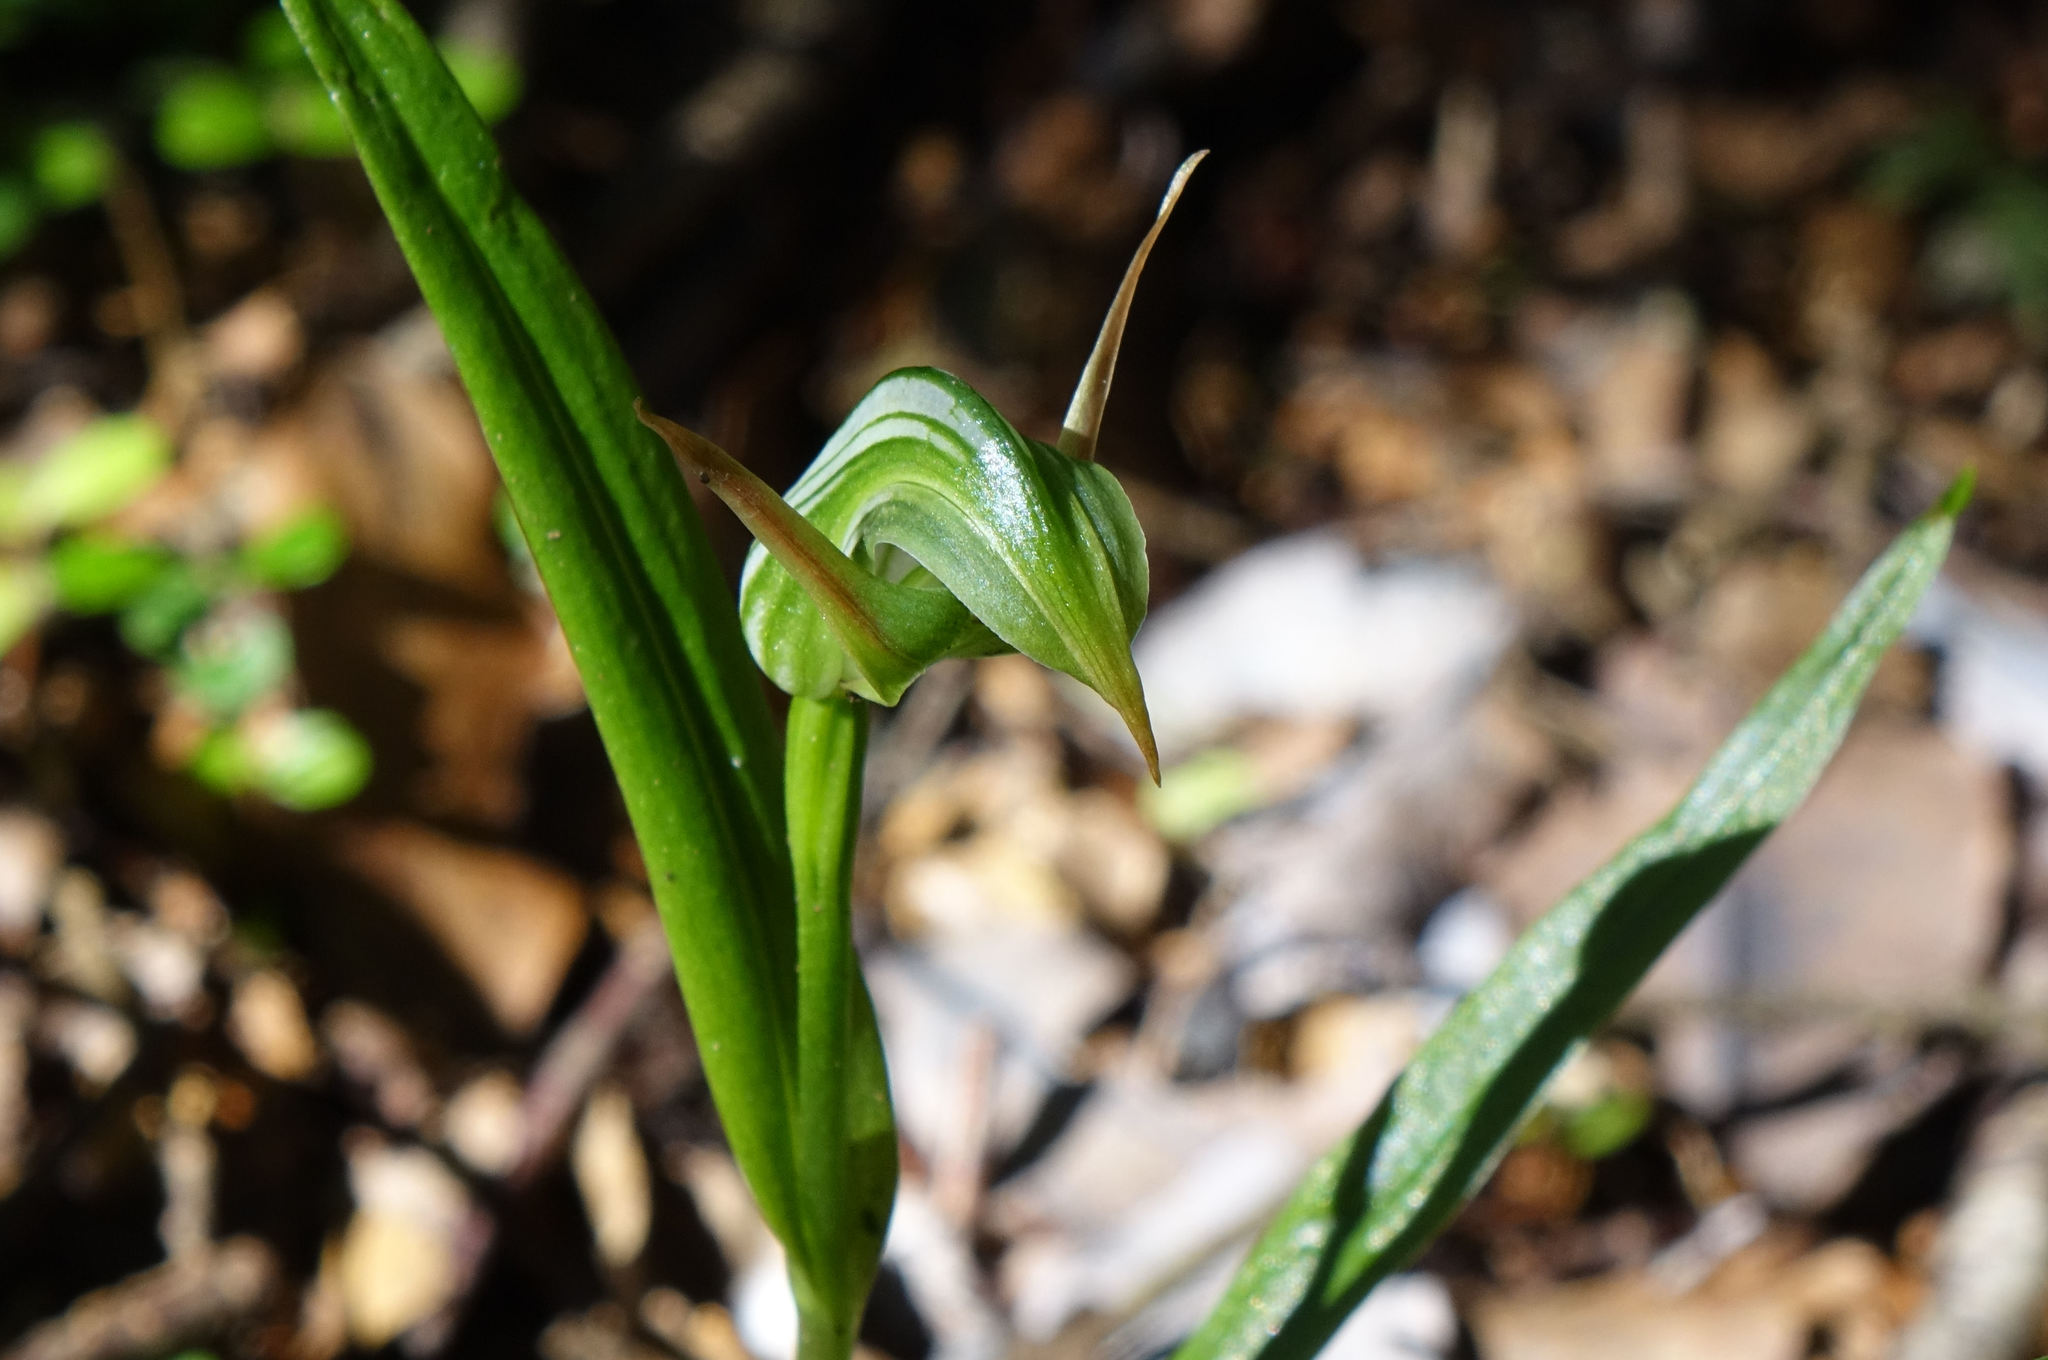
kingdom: Plantae
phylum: Tracheophyta
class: Liliopsida
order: Asparagales
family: Orchidaceae
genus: Pterostylis
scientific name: Pterostylis montana
